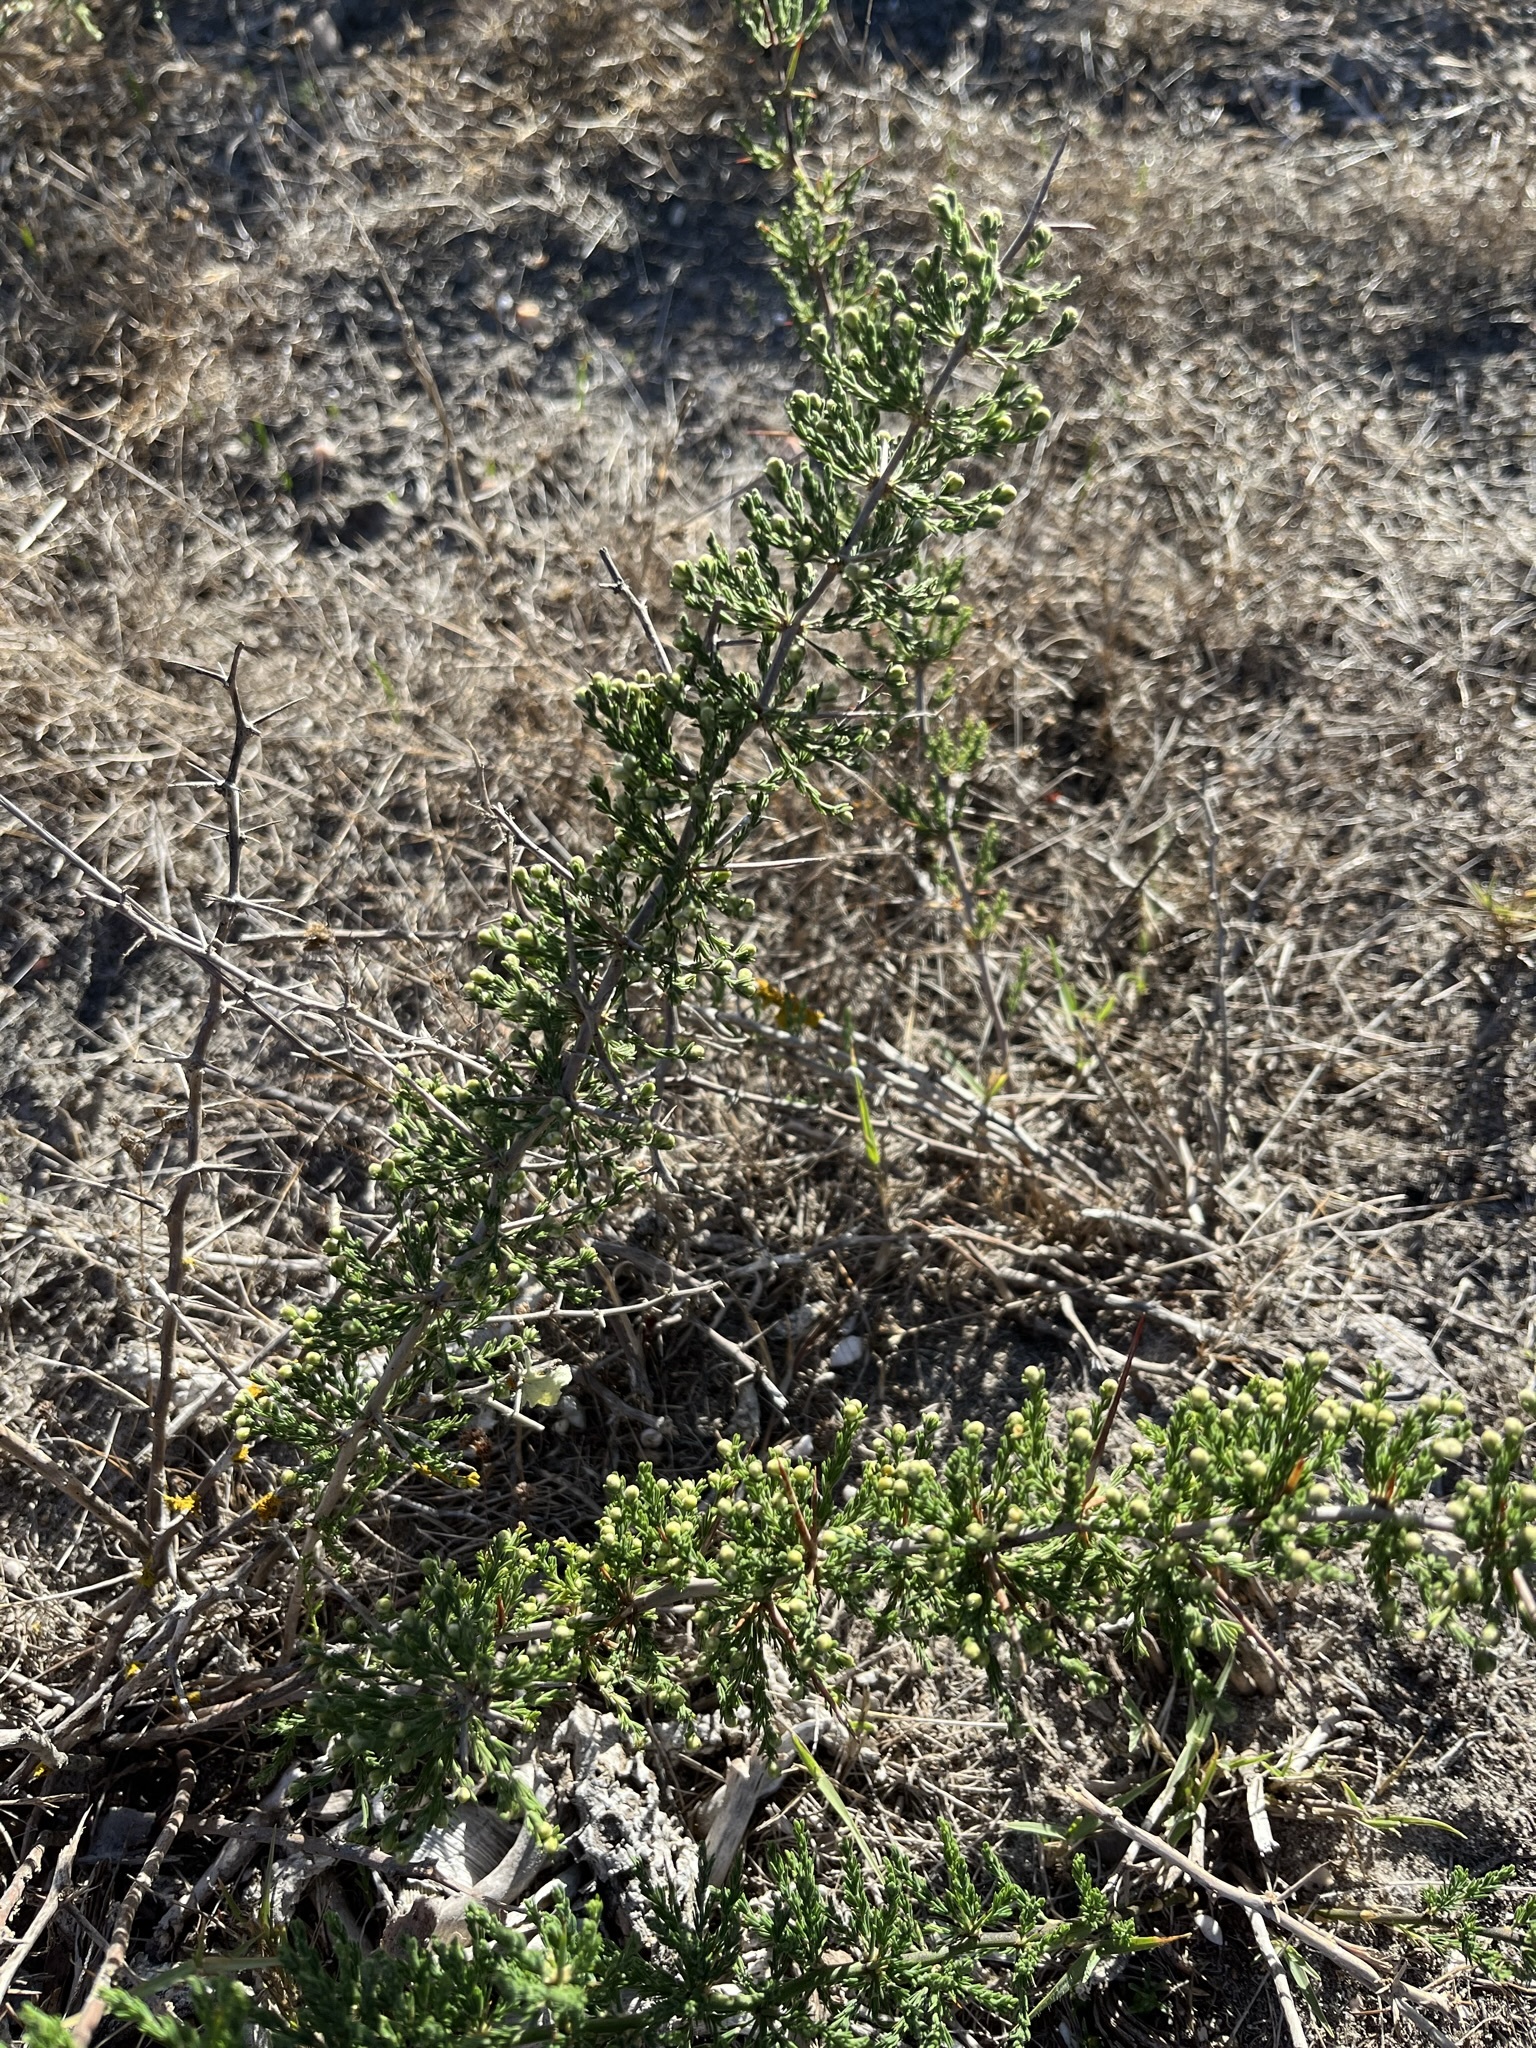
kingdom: Plantae
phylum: Tracheophyta
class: Liliopsida
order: Asparagales
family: Asparagaceae
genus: Asparagus
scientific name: Asparagus mariae
